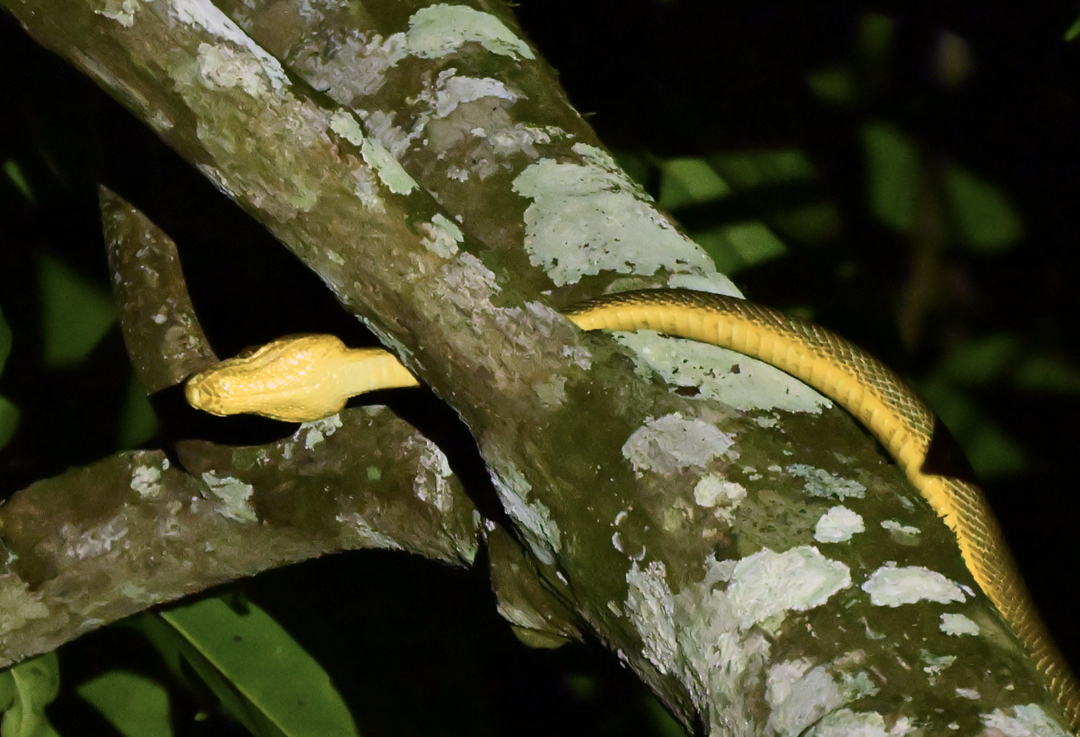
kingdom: Animalia
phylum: Chordata
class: Squamata
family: Boidae
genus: Corallus
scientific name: Corallus ruschenbergerii
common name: Dormilona
